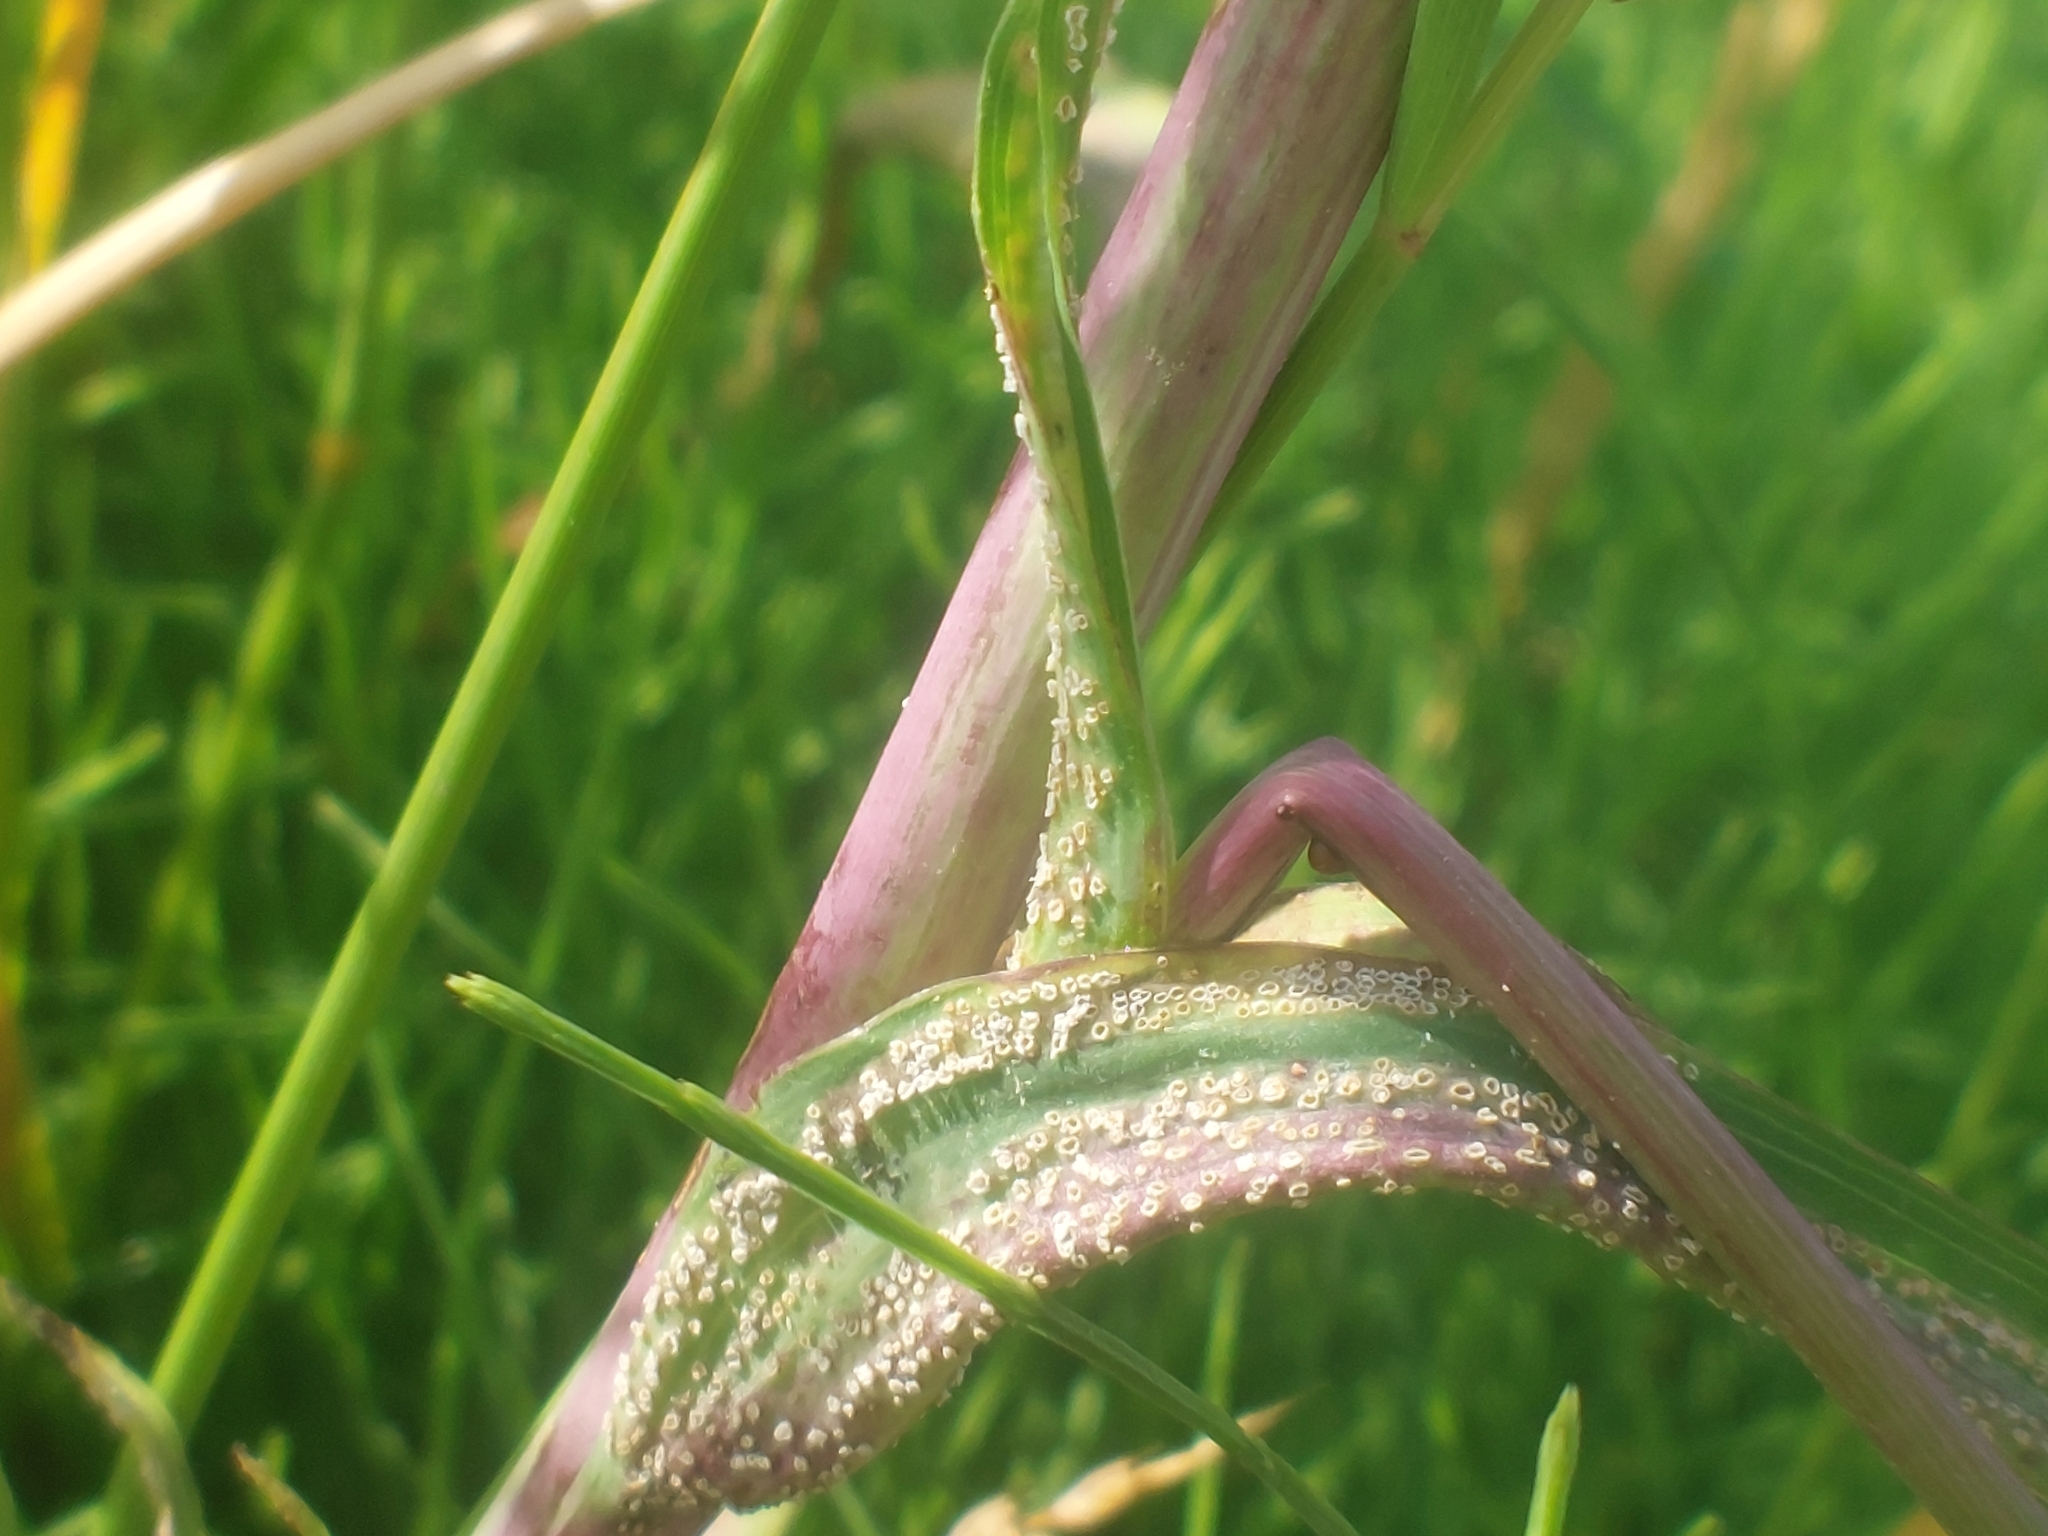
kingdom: Fungi
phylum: Basidiomycota
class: Pucciniomycetes
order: Pucciniales
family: Pucciniaceae
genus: Puccinia
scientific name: Puccinia hysterium
